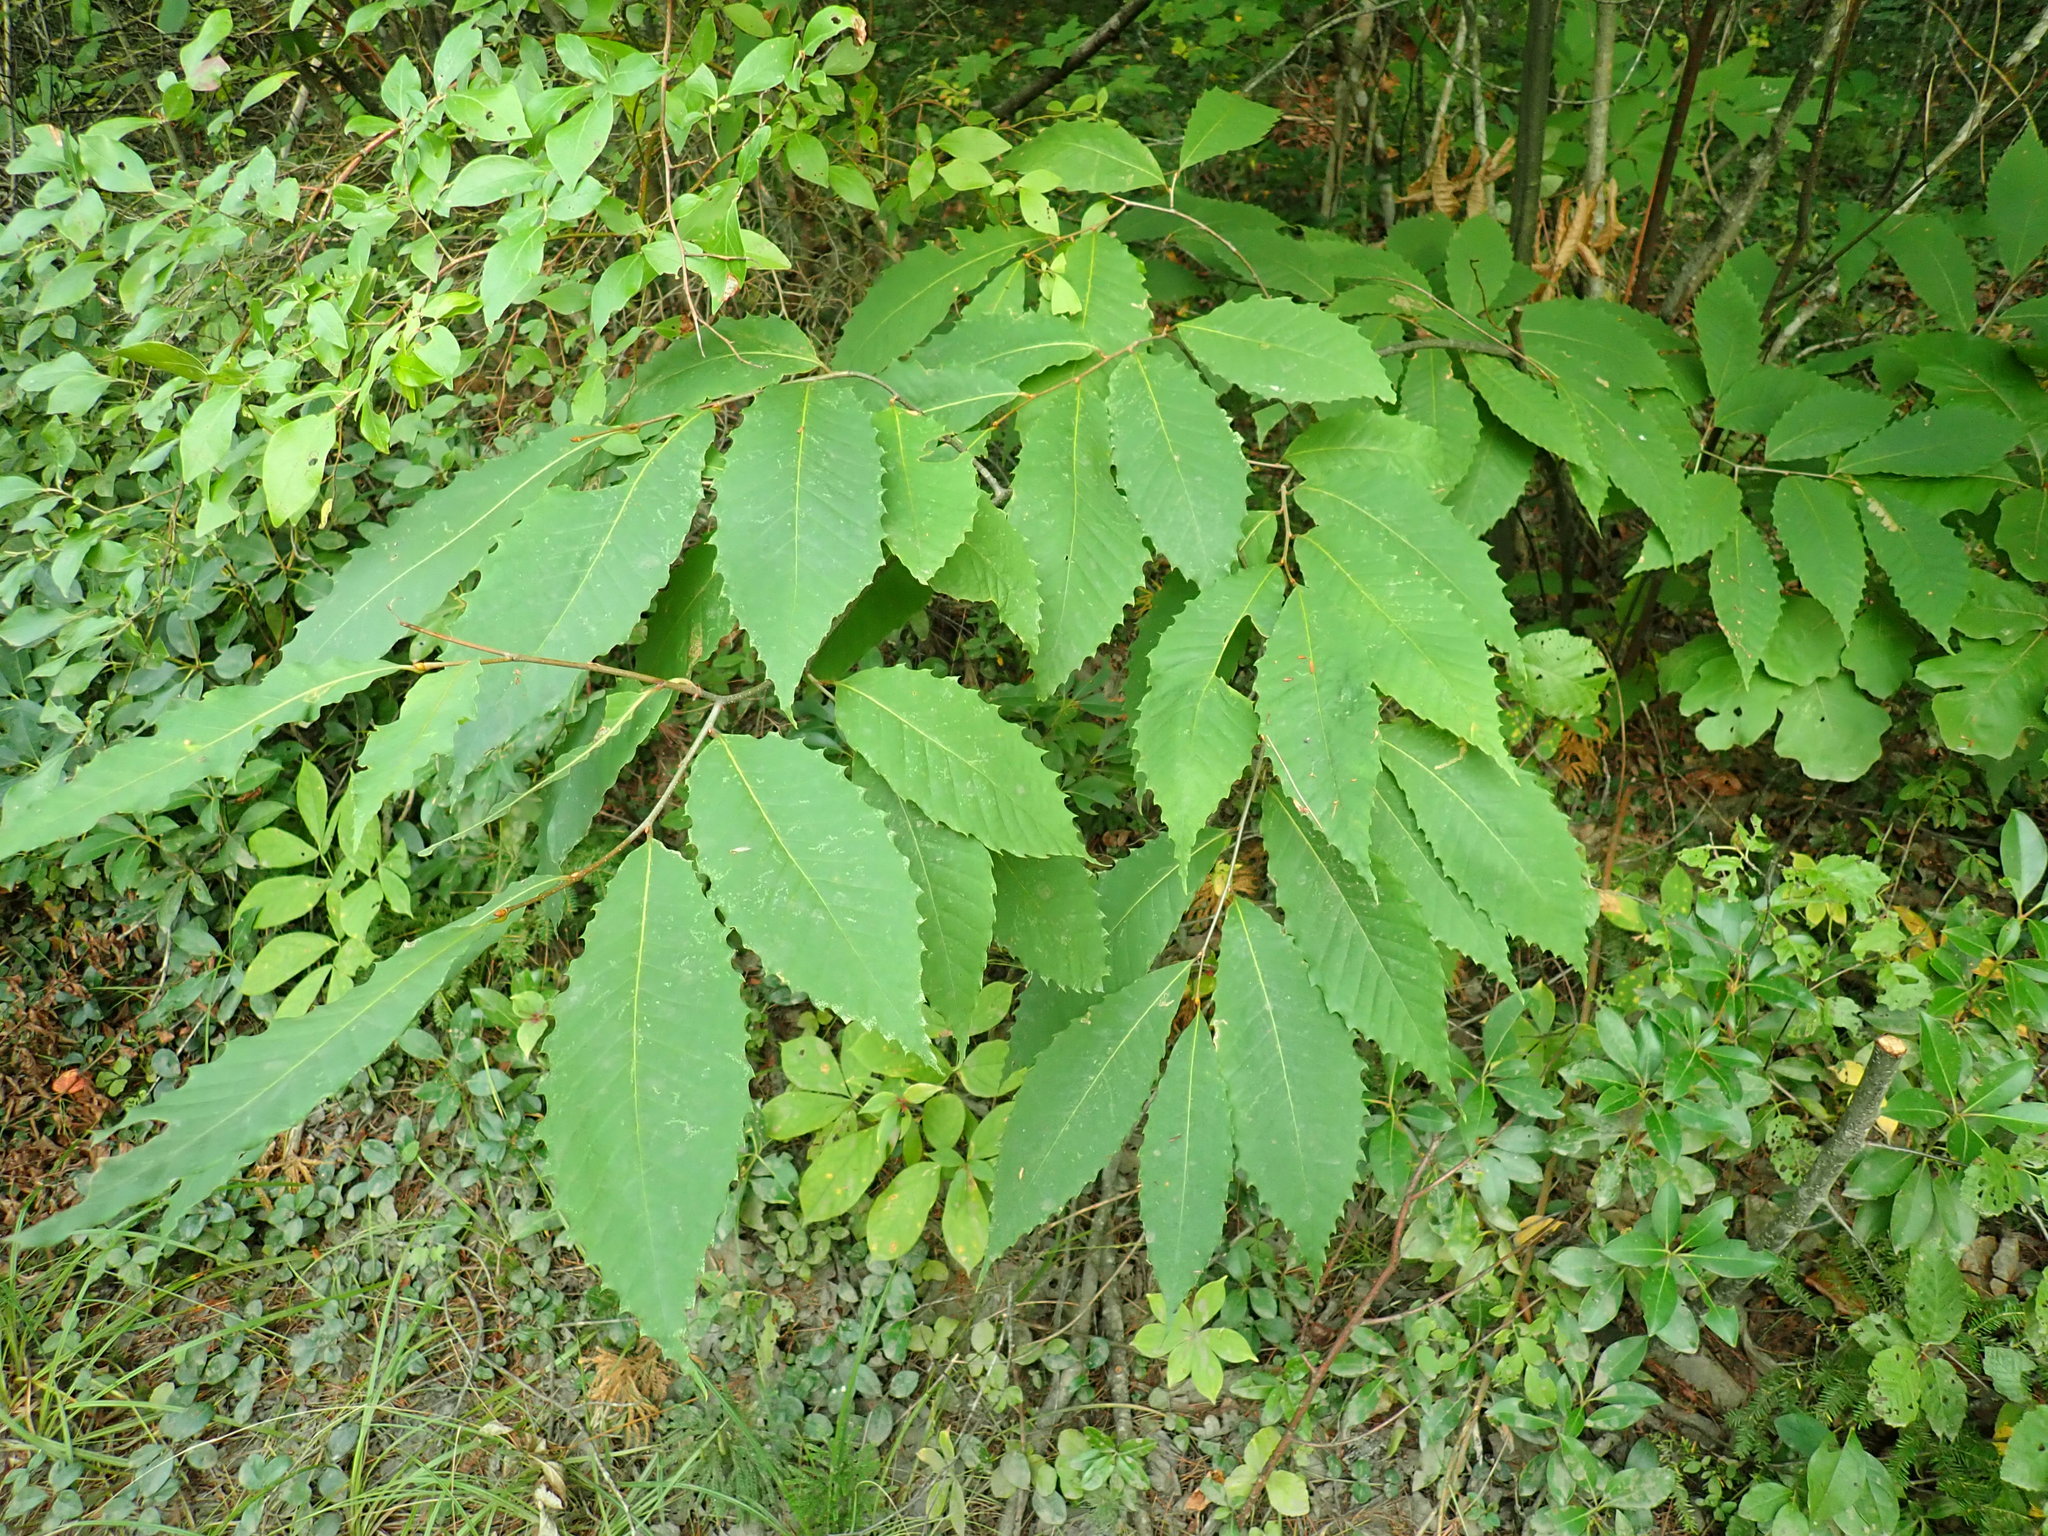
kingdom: Plantae
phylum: Tracheophyta
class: Magnoliopsida
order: Fagales
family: Fagaceae
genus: Castanea
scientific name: Castanea dentata
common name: American chestnut
